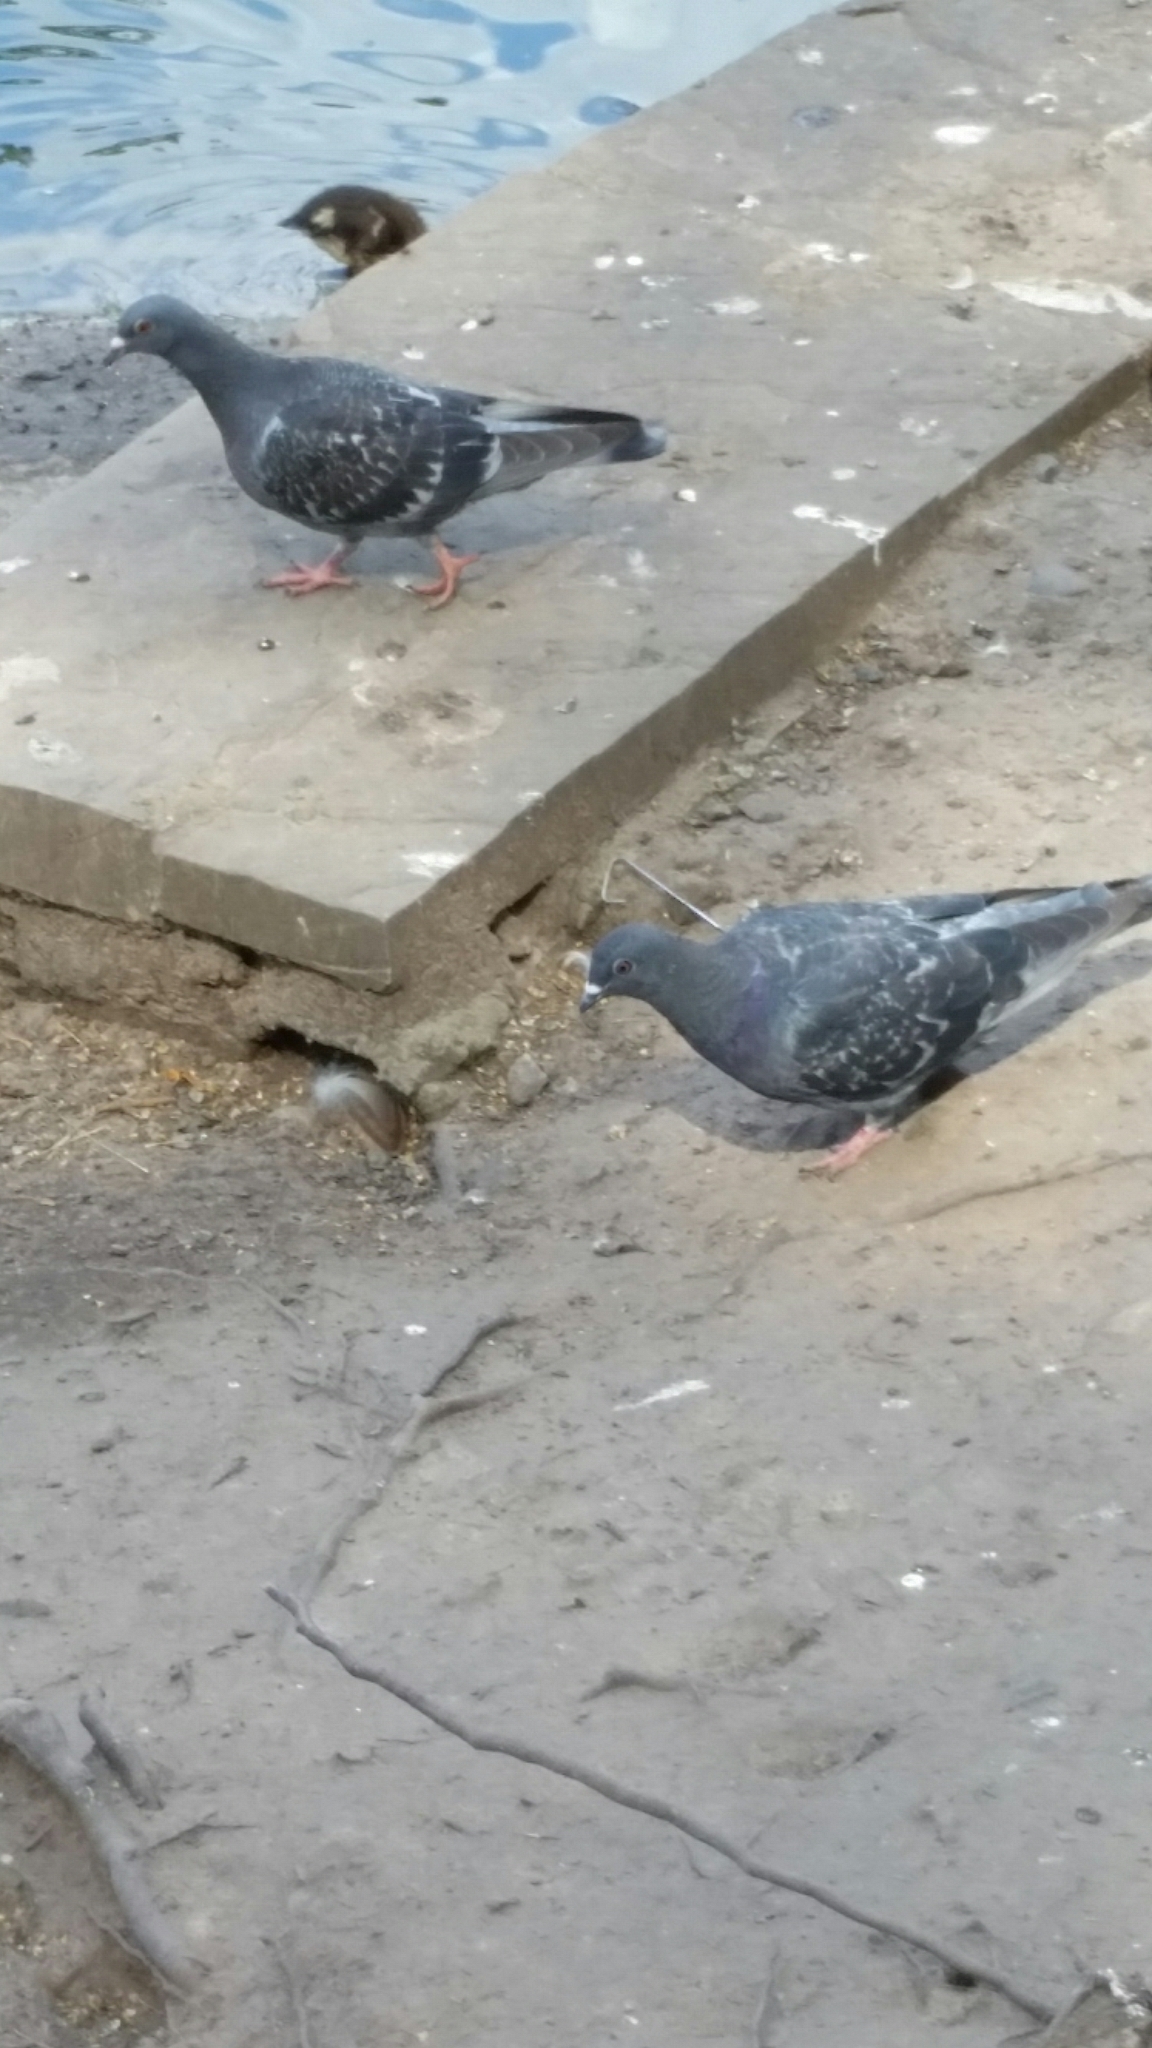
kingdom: Animalia
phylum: Chordata
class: Aves
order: Columbiformes
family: Columbidae
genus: Columba
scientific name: Columba livia
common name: Rock pigeon
